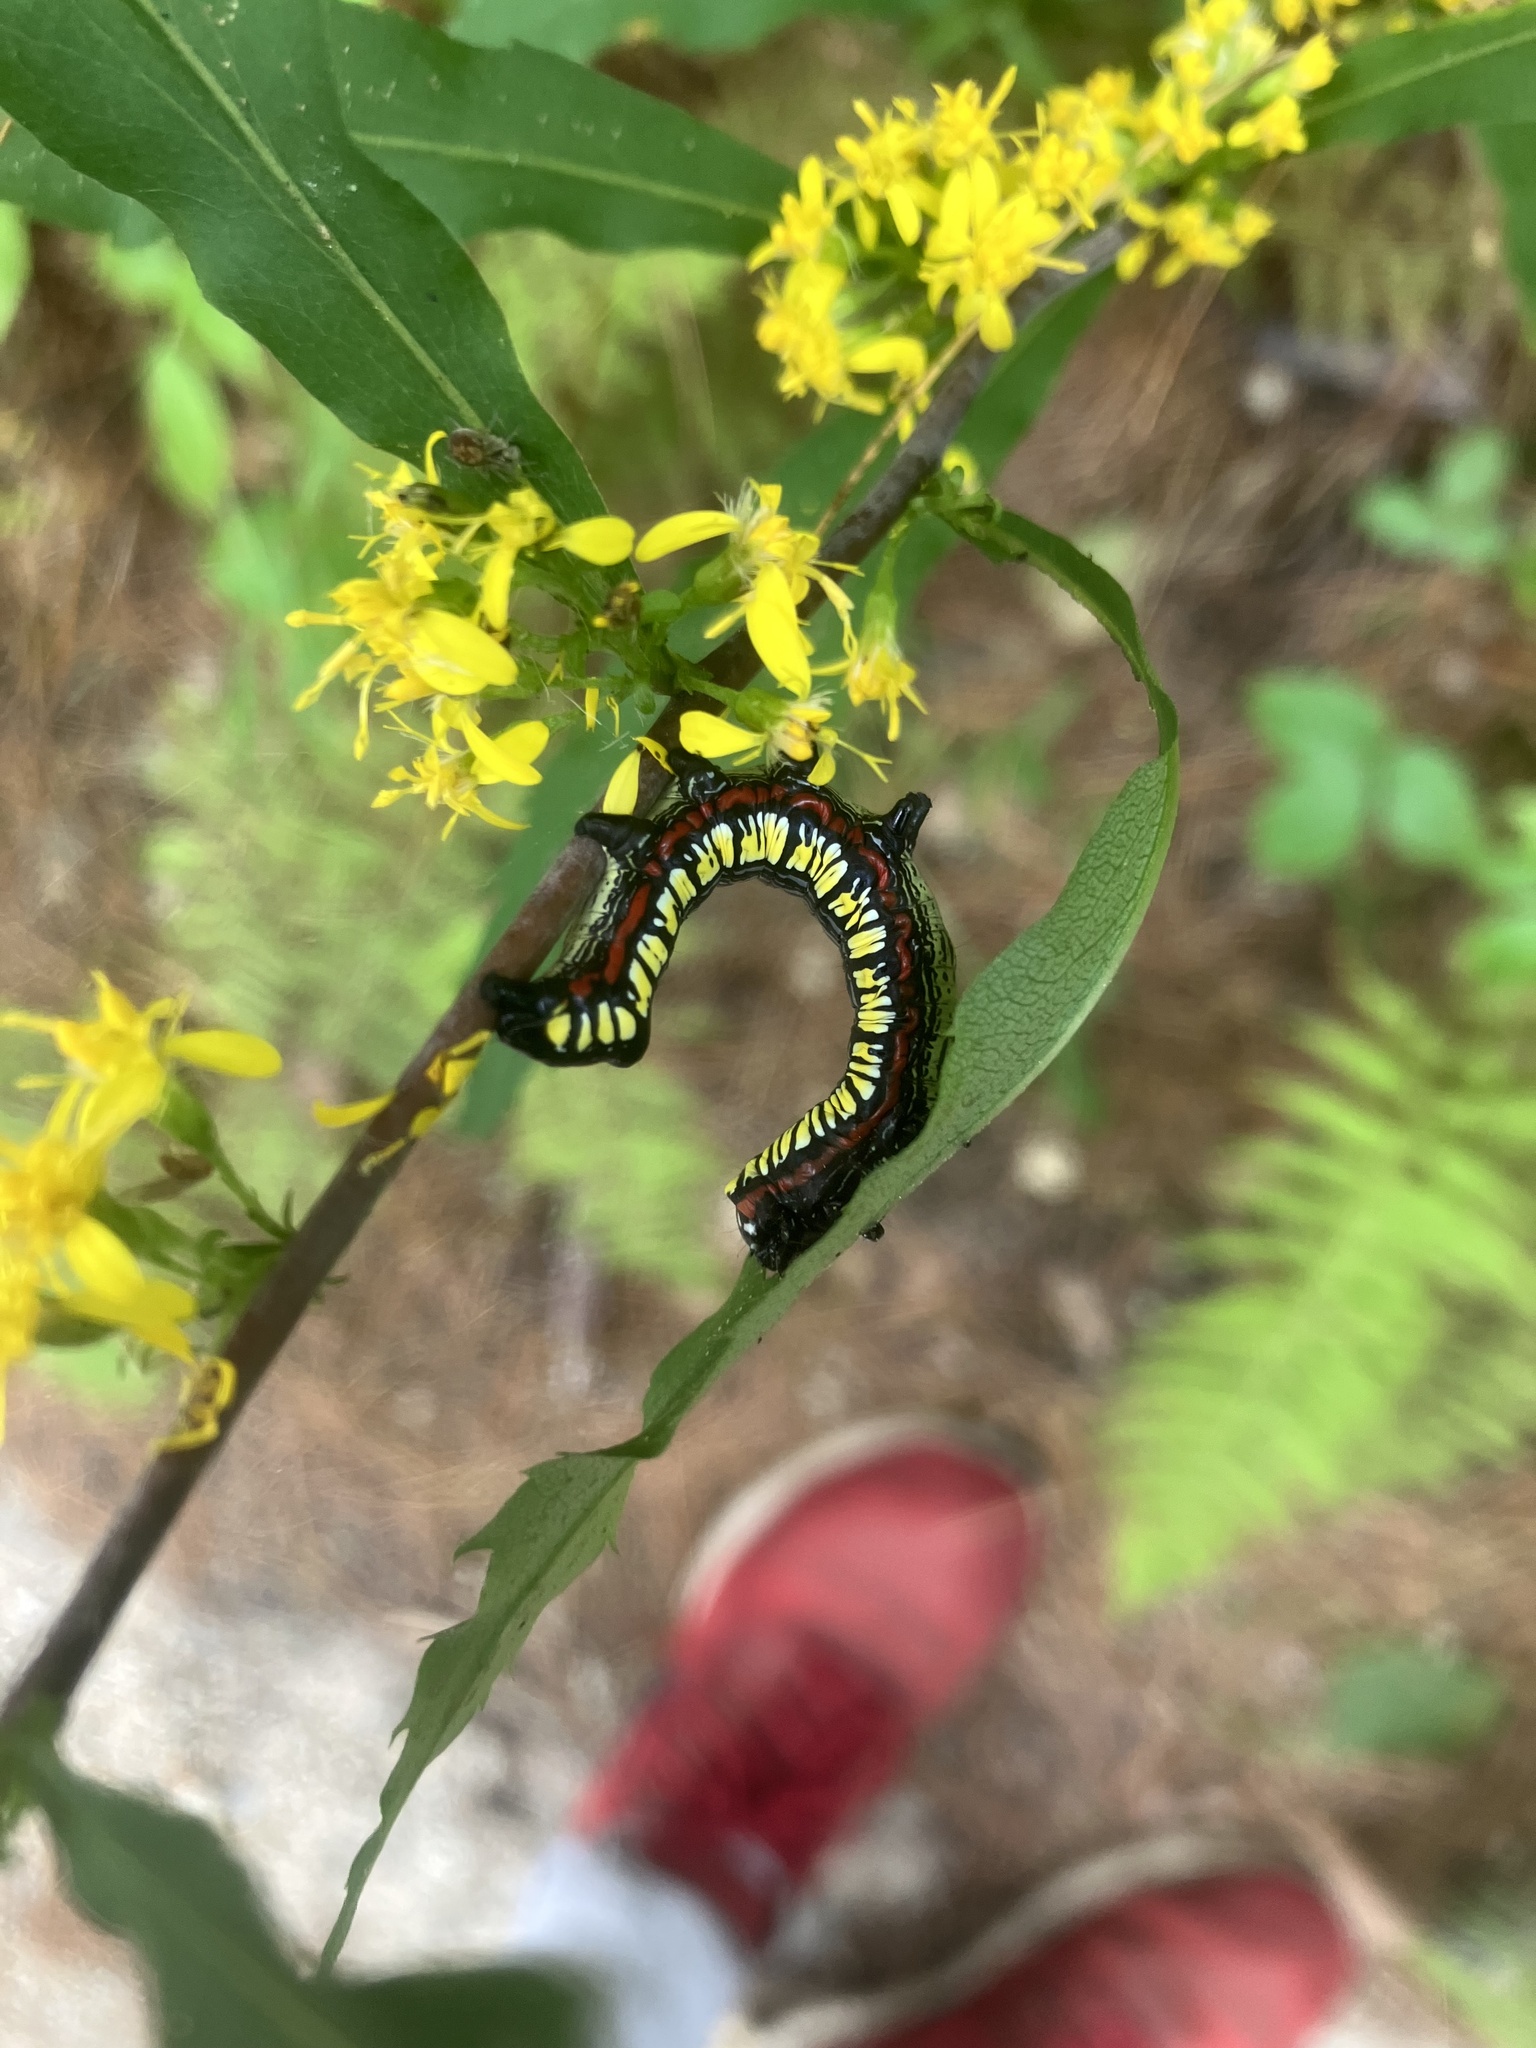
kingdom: Animalia
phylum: Arthropoda
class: Insecta
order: Lepidoptera
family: Noctuidae
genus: Cucullia
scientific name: Cucullia convexipennis
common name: Brown-hooded owlet
